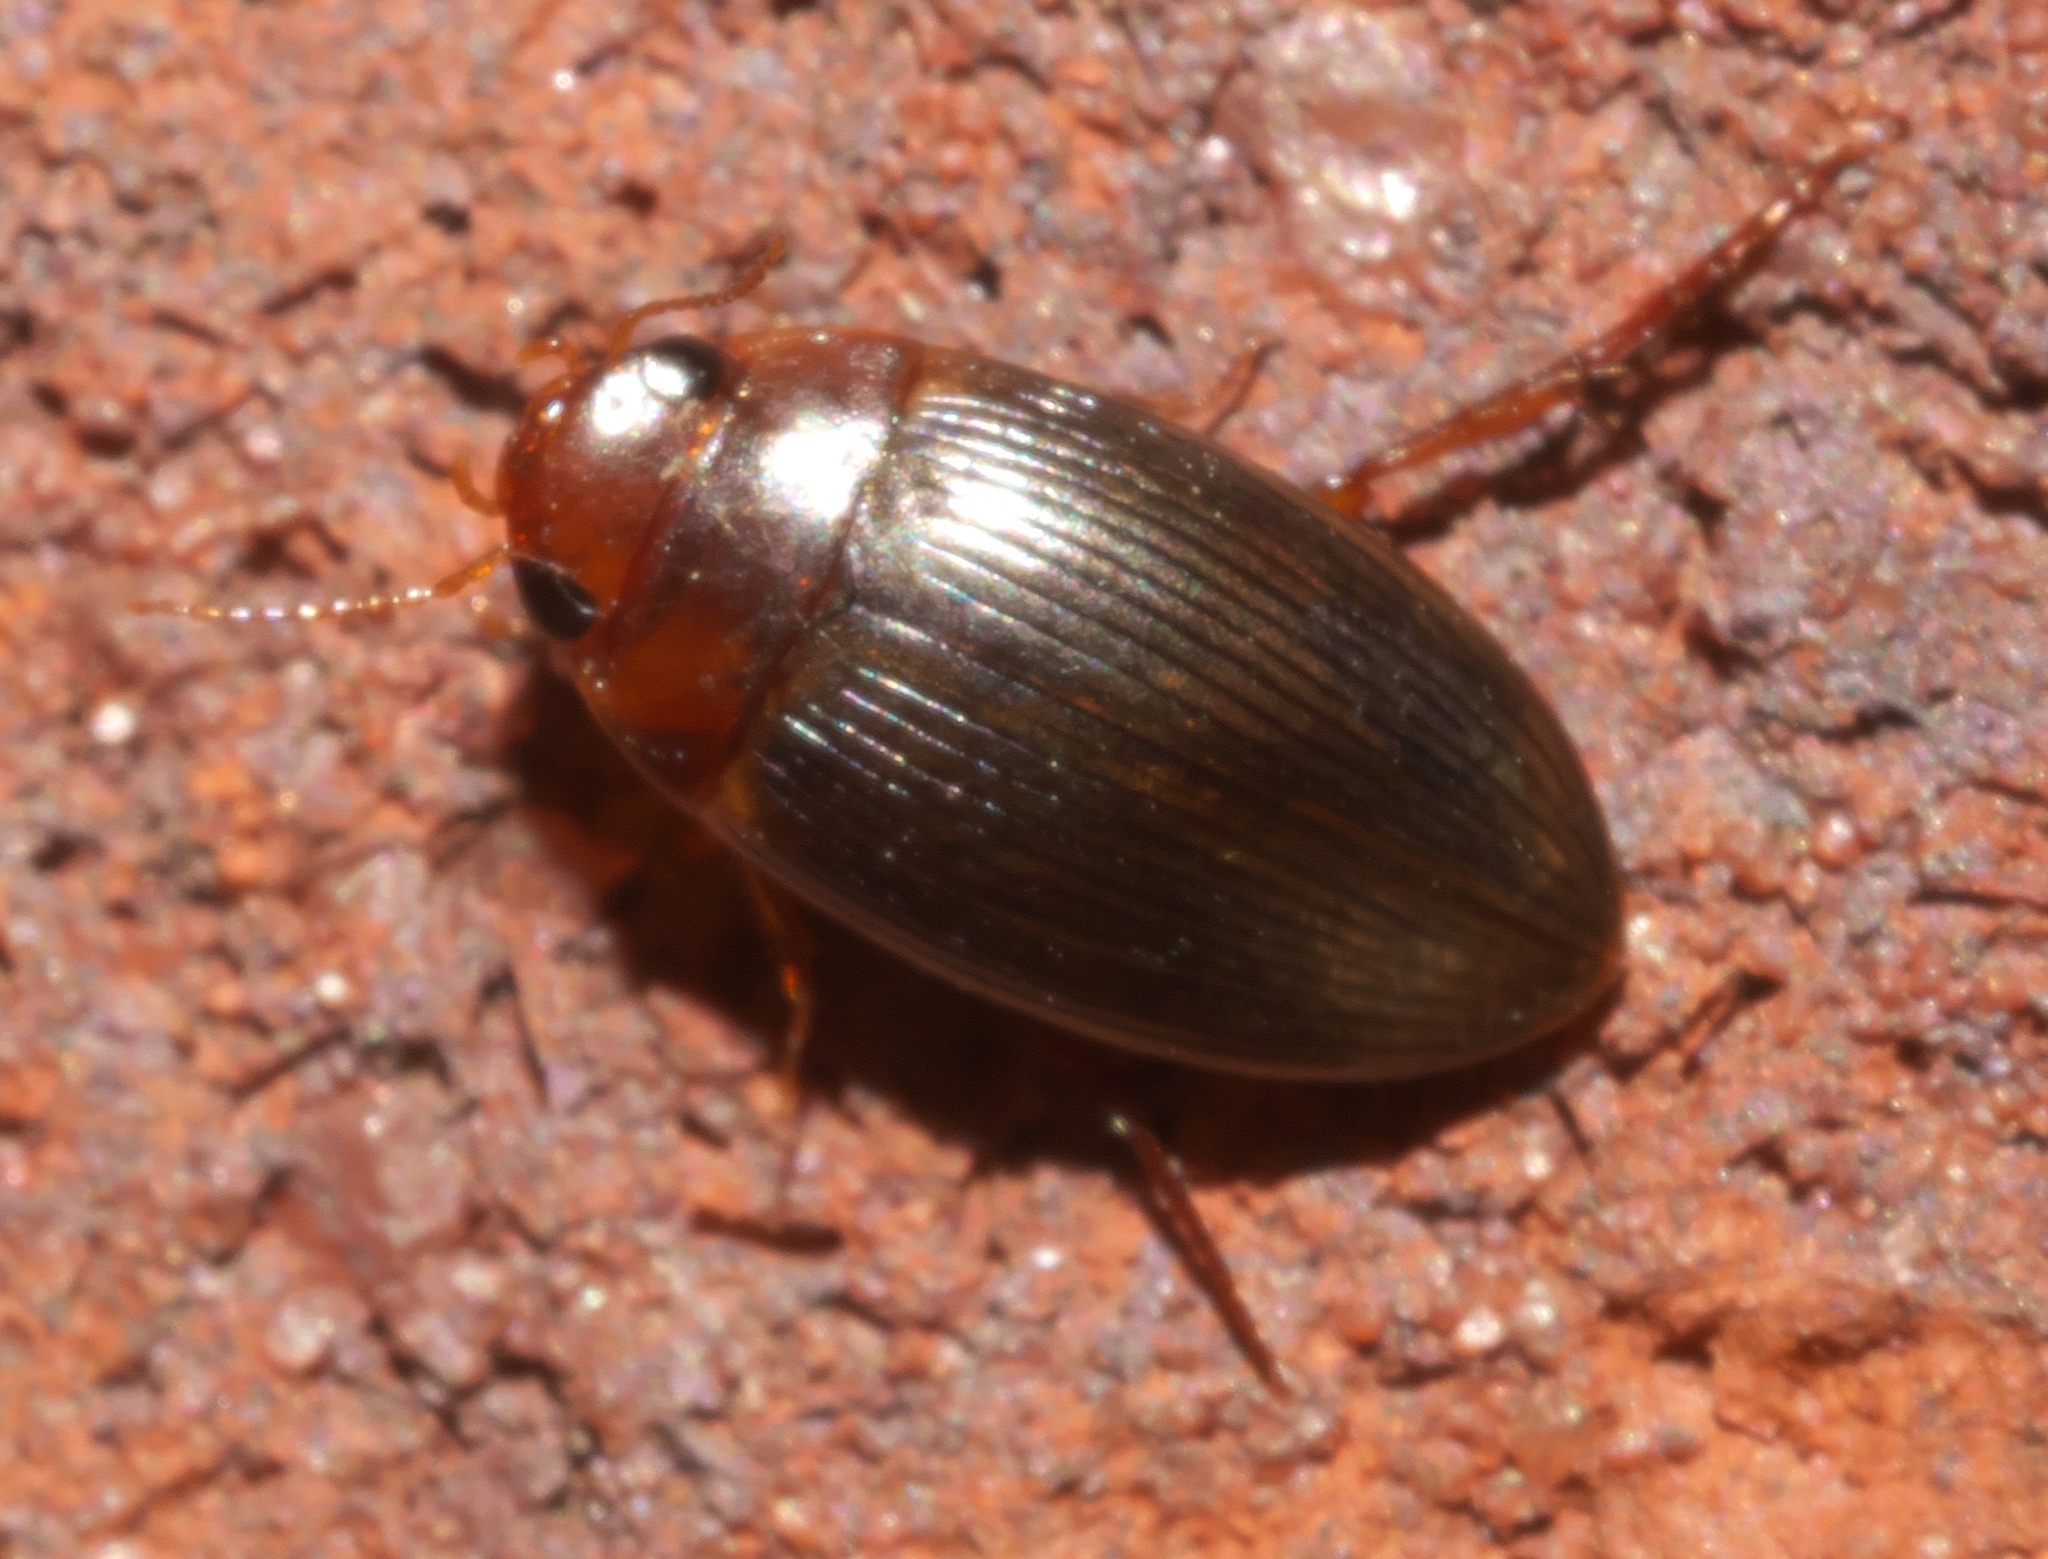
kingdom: Animalia
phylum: Arthropoda
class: Insecta
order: Coleoptera
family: Dytiscidae
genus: Copelatus
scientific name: Copelatus glyphicus
